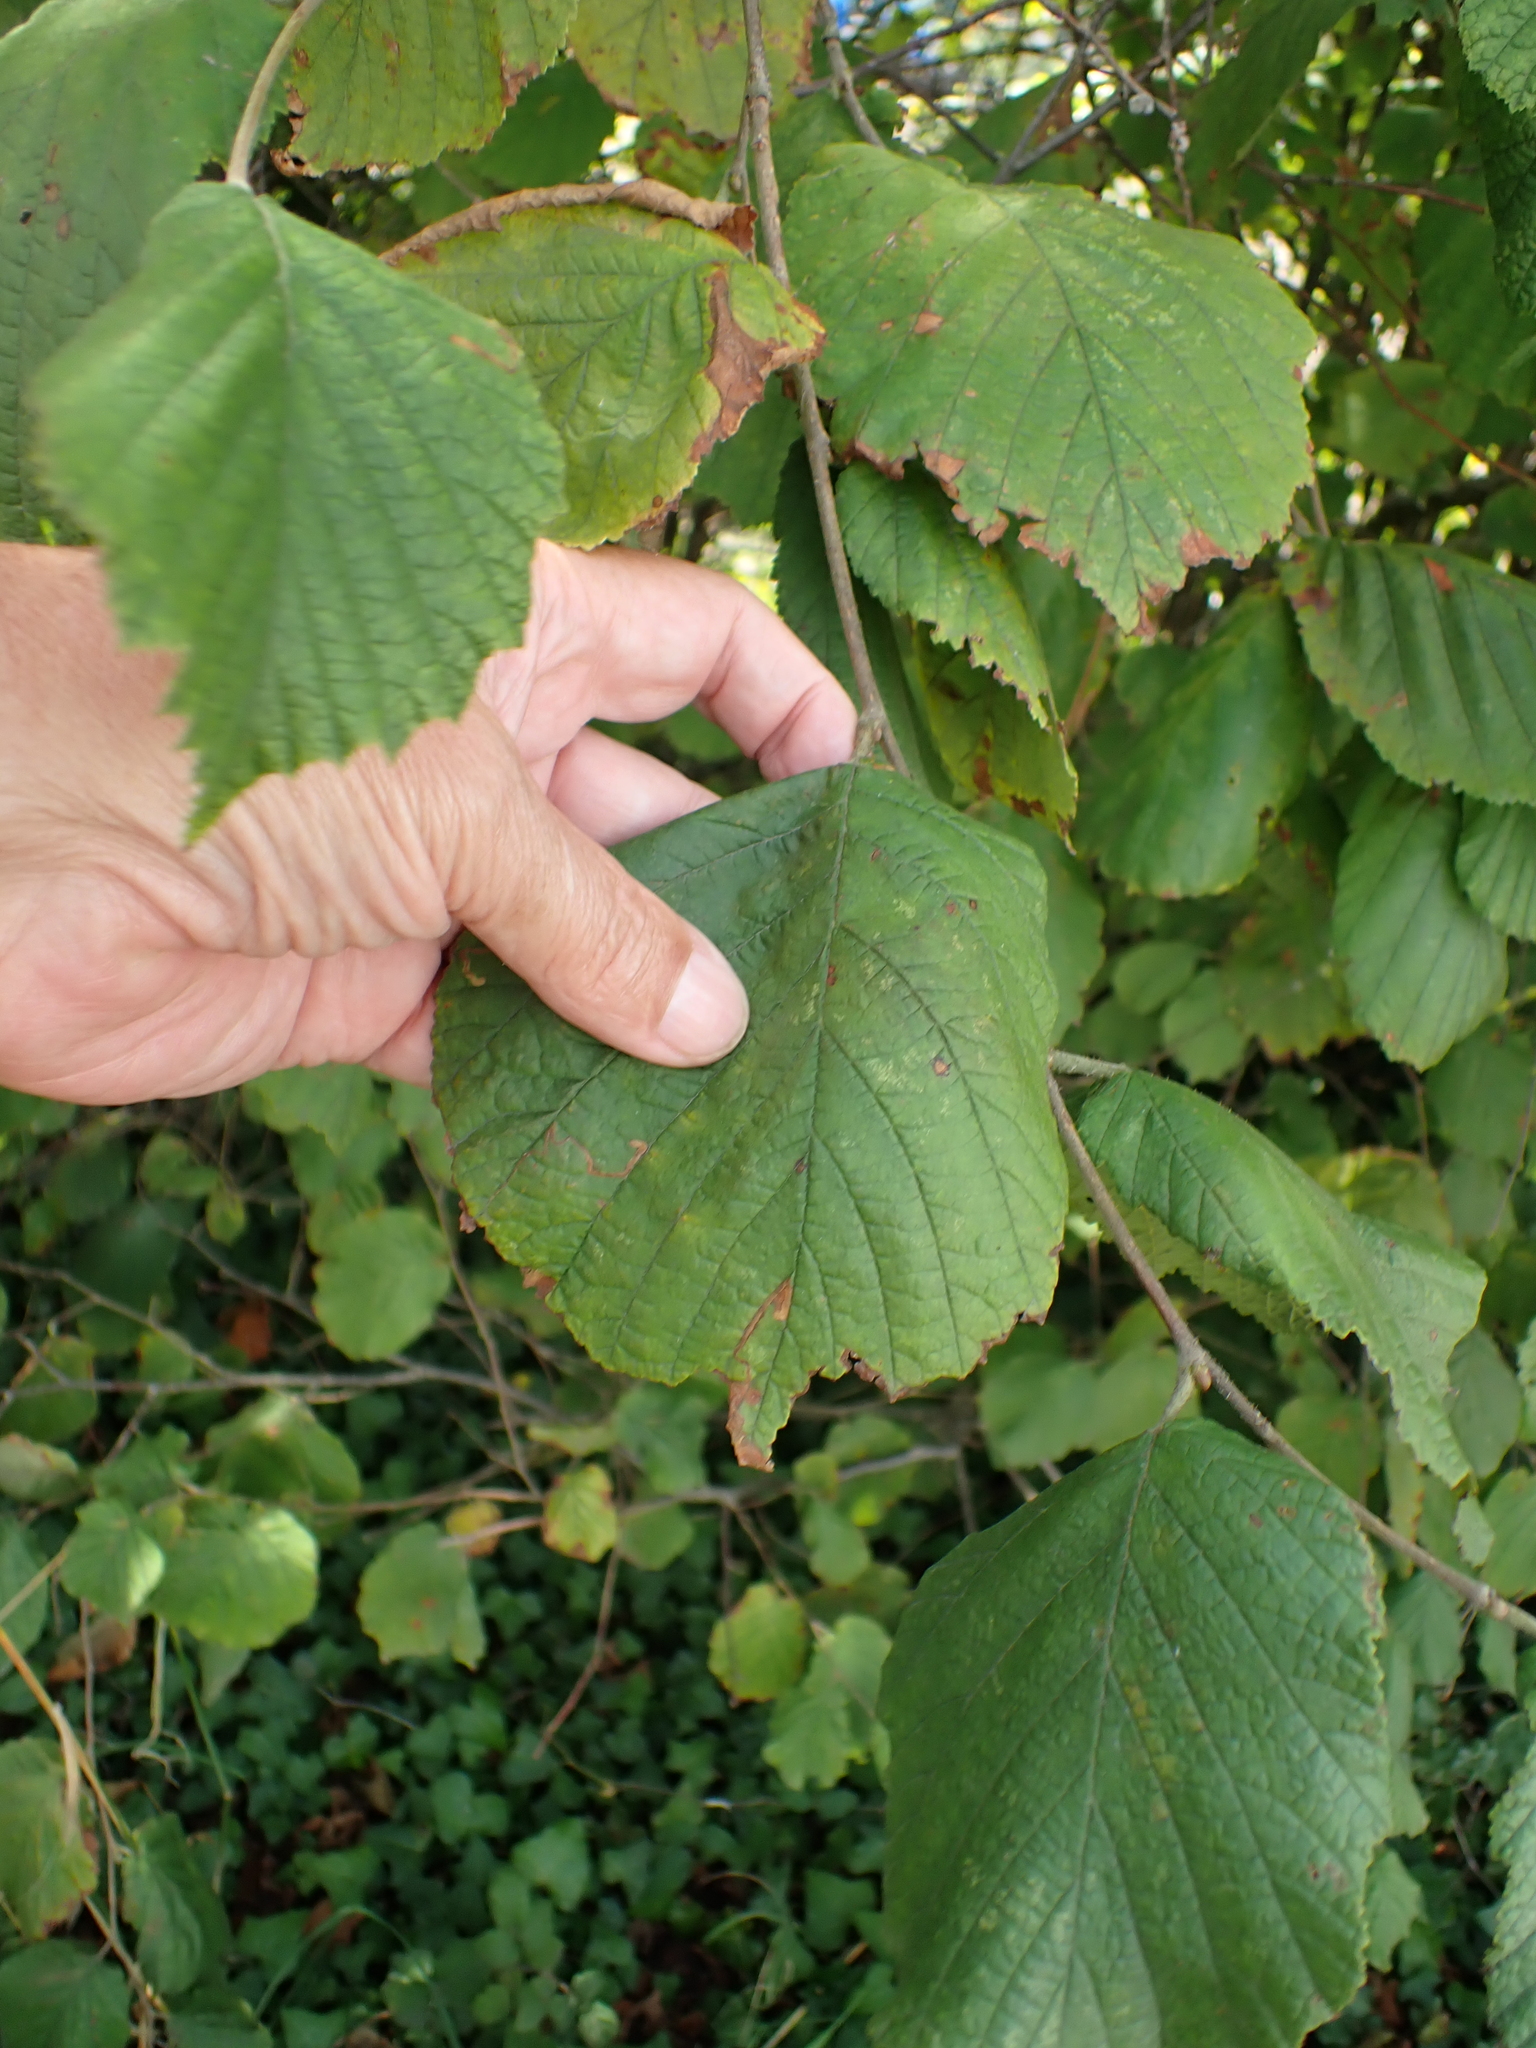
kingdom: Plantae
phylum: Tracheophyta
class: Magnoliopsida
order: Fagales
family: Betulaceae
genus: Corylus
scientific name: Corylus avellana
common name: European hazel
